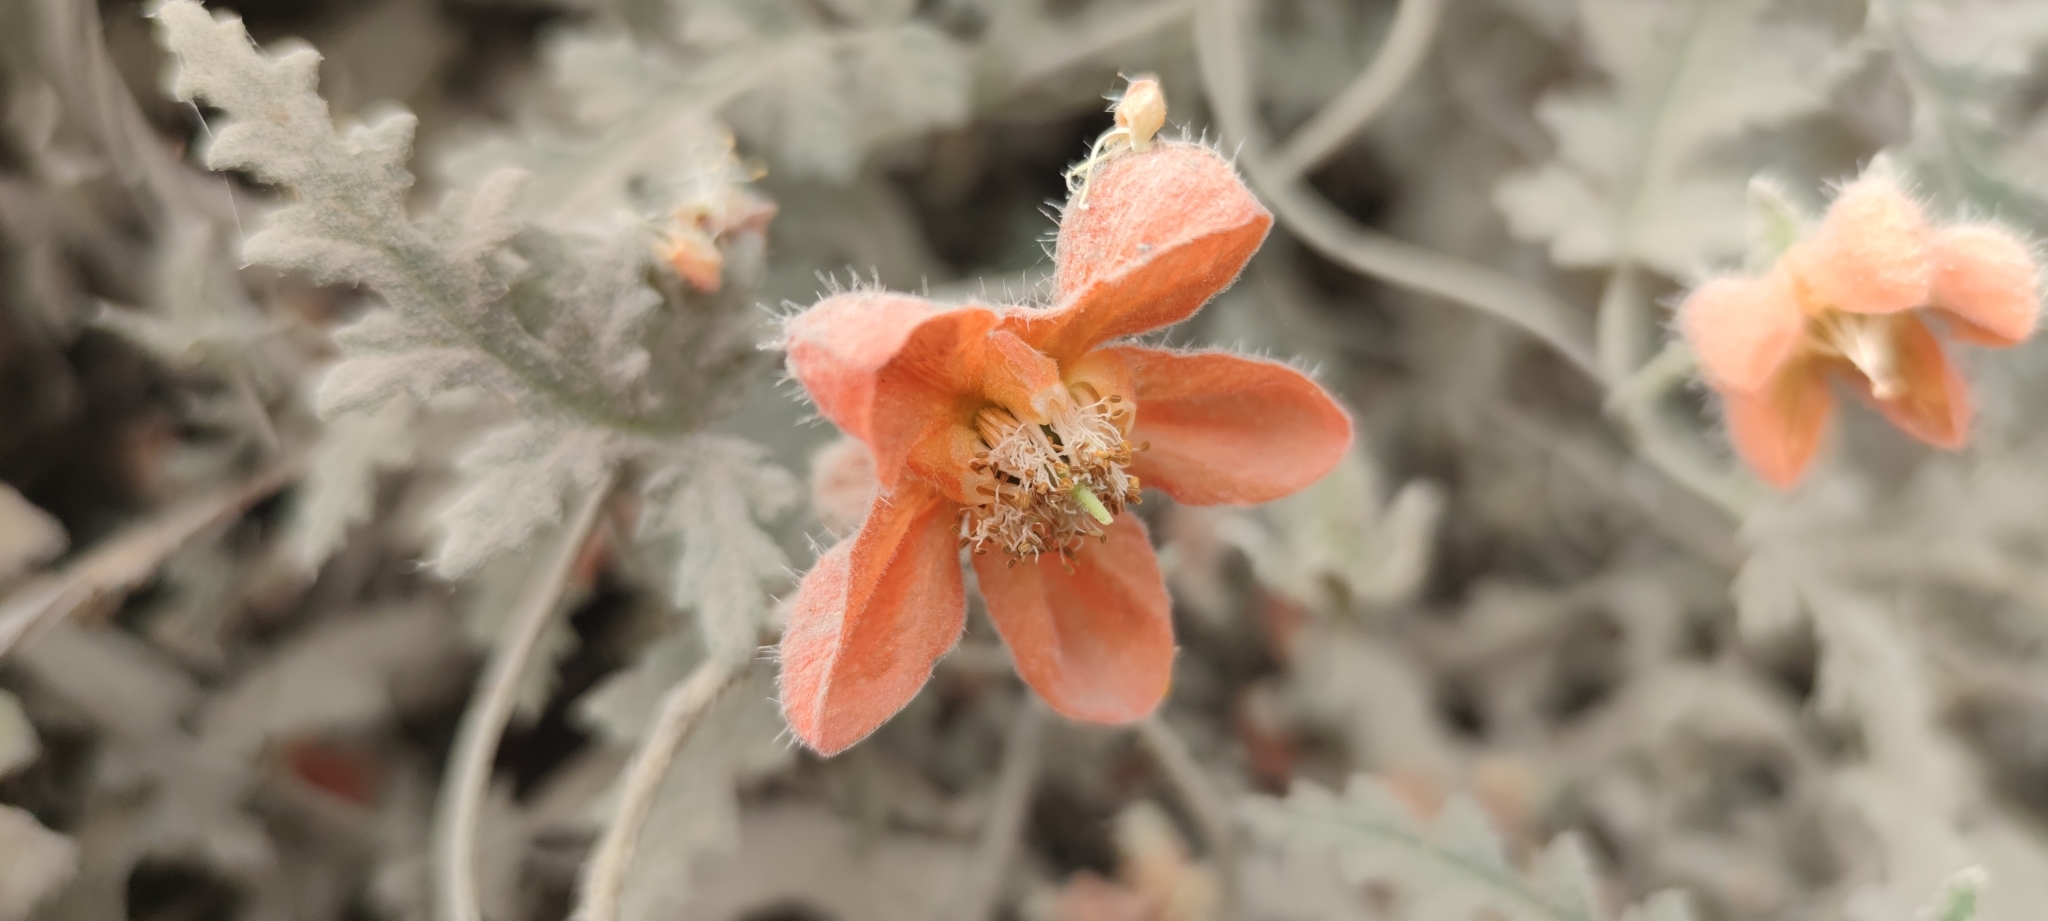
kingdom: Plantae
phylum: Tracheophyta
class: Magnoliopsida
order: Cornales
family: Loasaceae
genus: Caiophora
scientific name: Caiophora cirsiifolia
